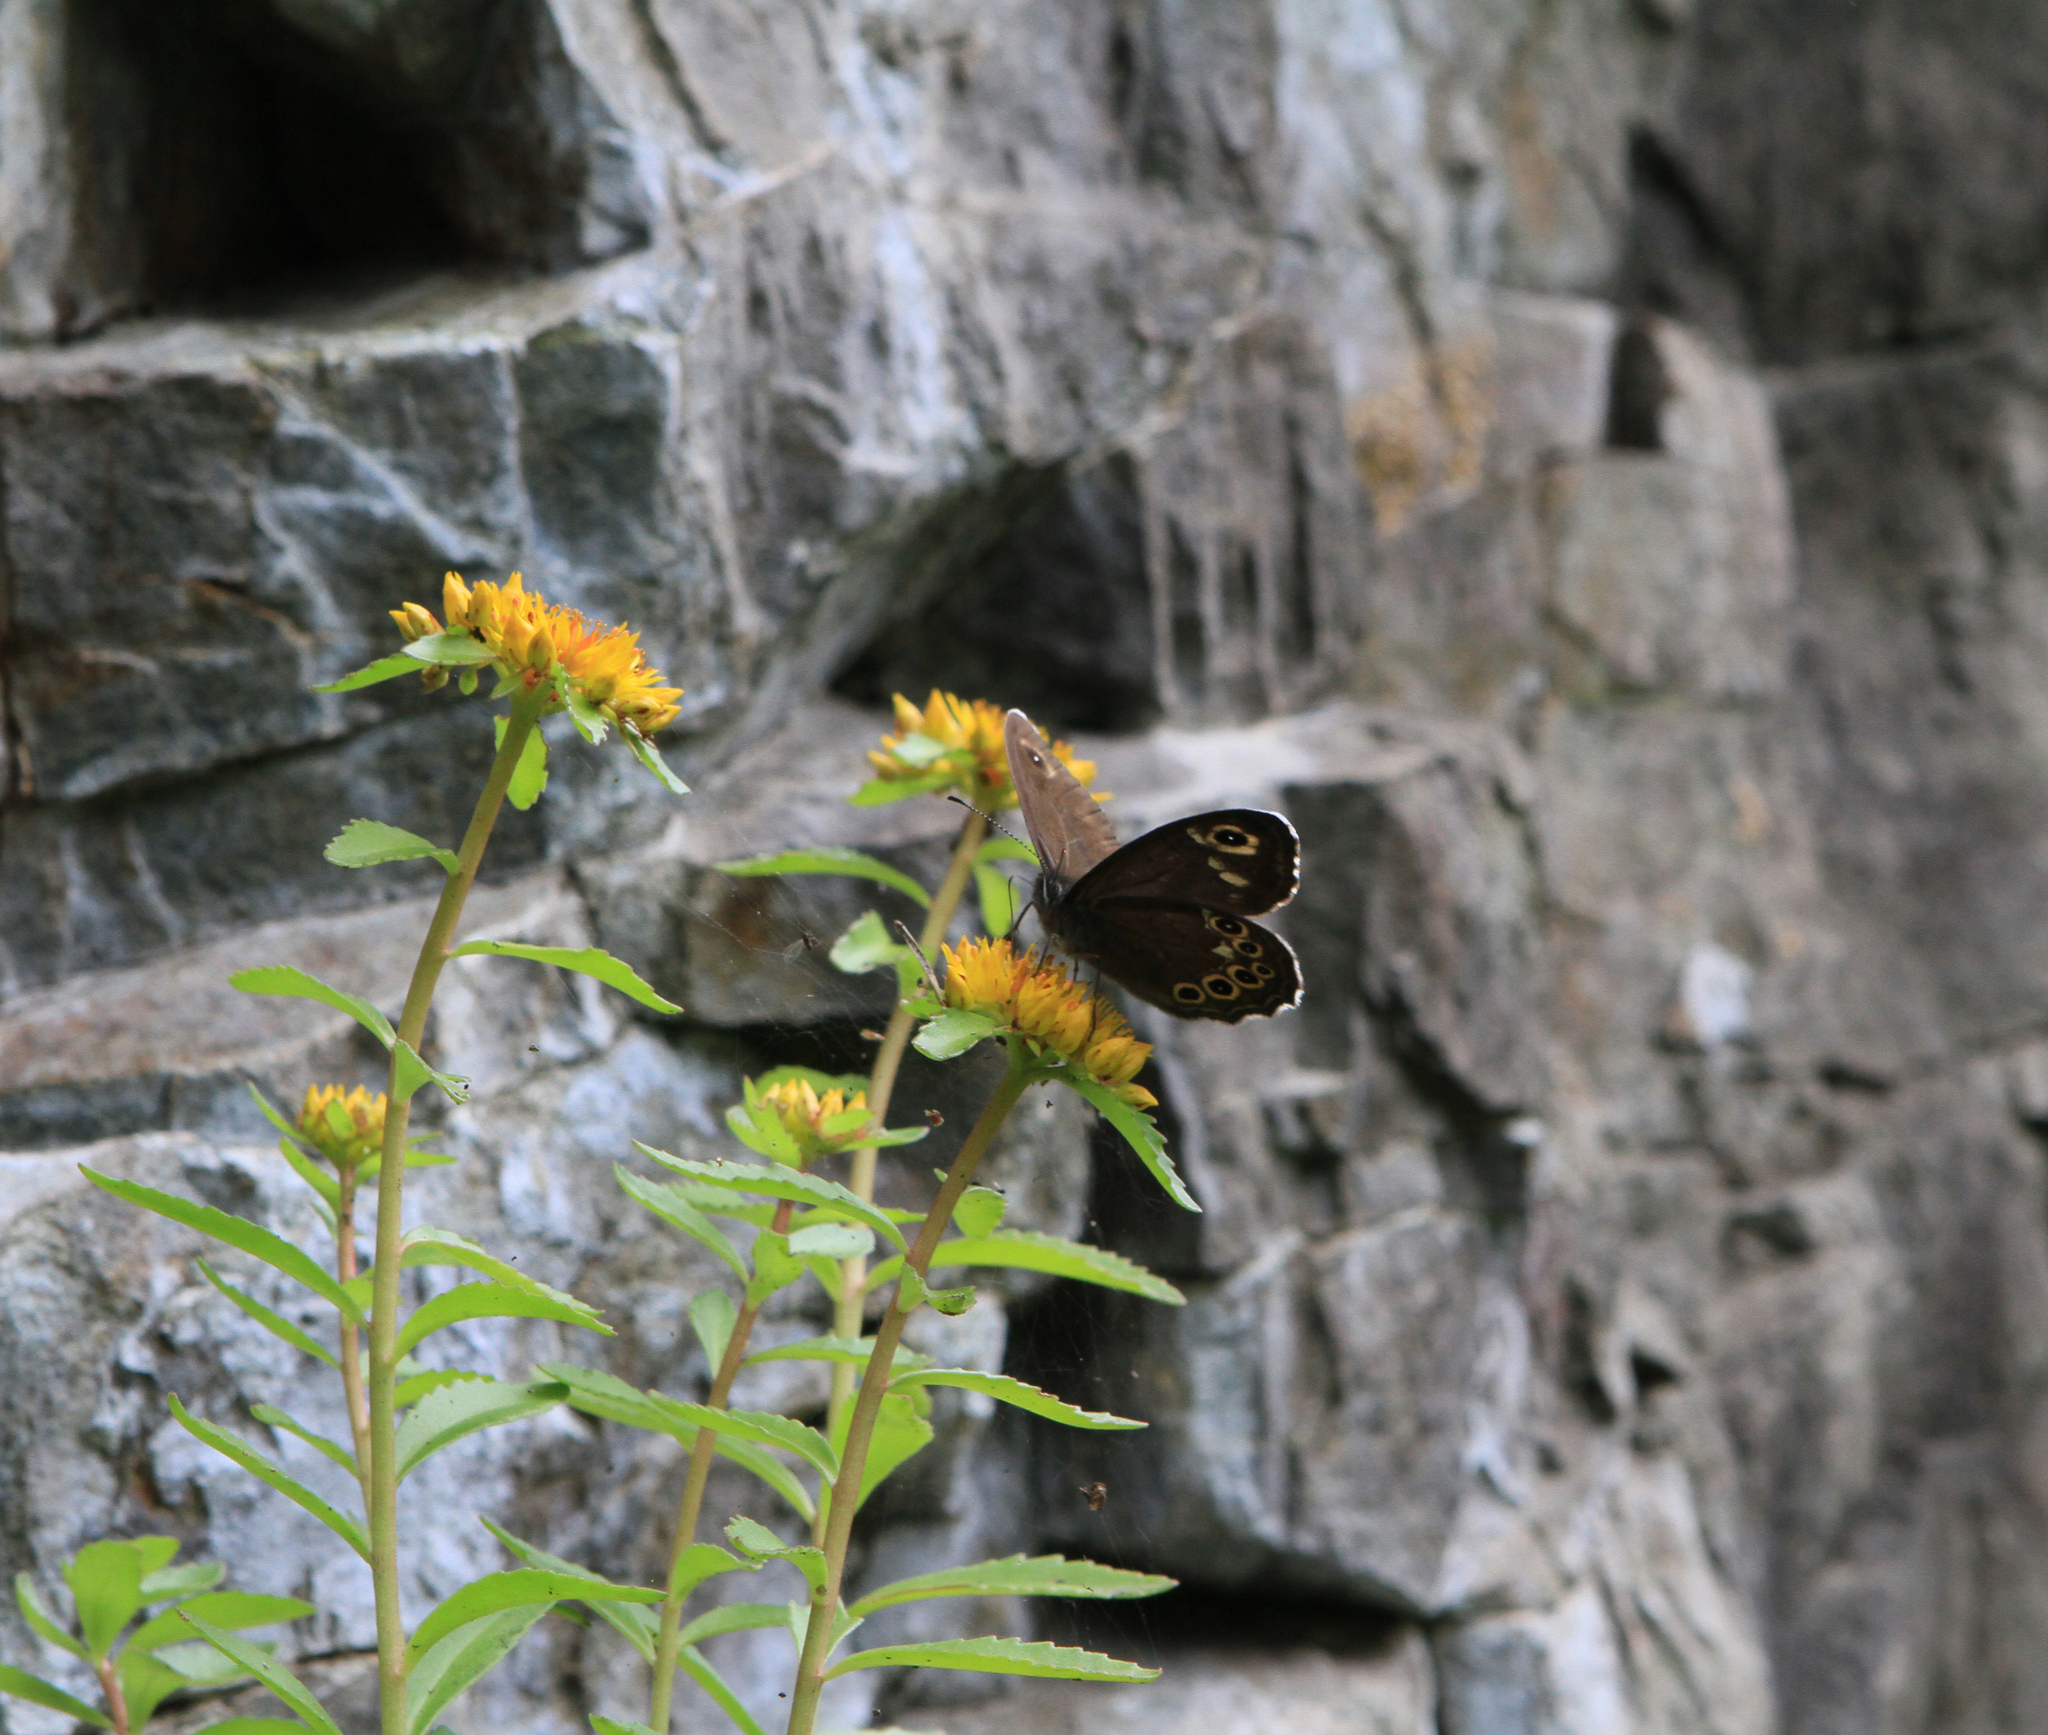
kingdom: Animalia
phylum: Arthropoda
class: Insecta
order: Lepidoptera
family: Nymphalidae
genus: Pararge
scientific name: Pararge Lasiommata deidamia
